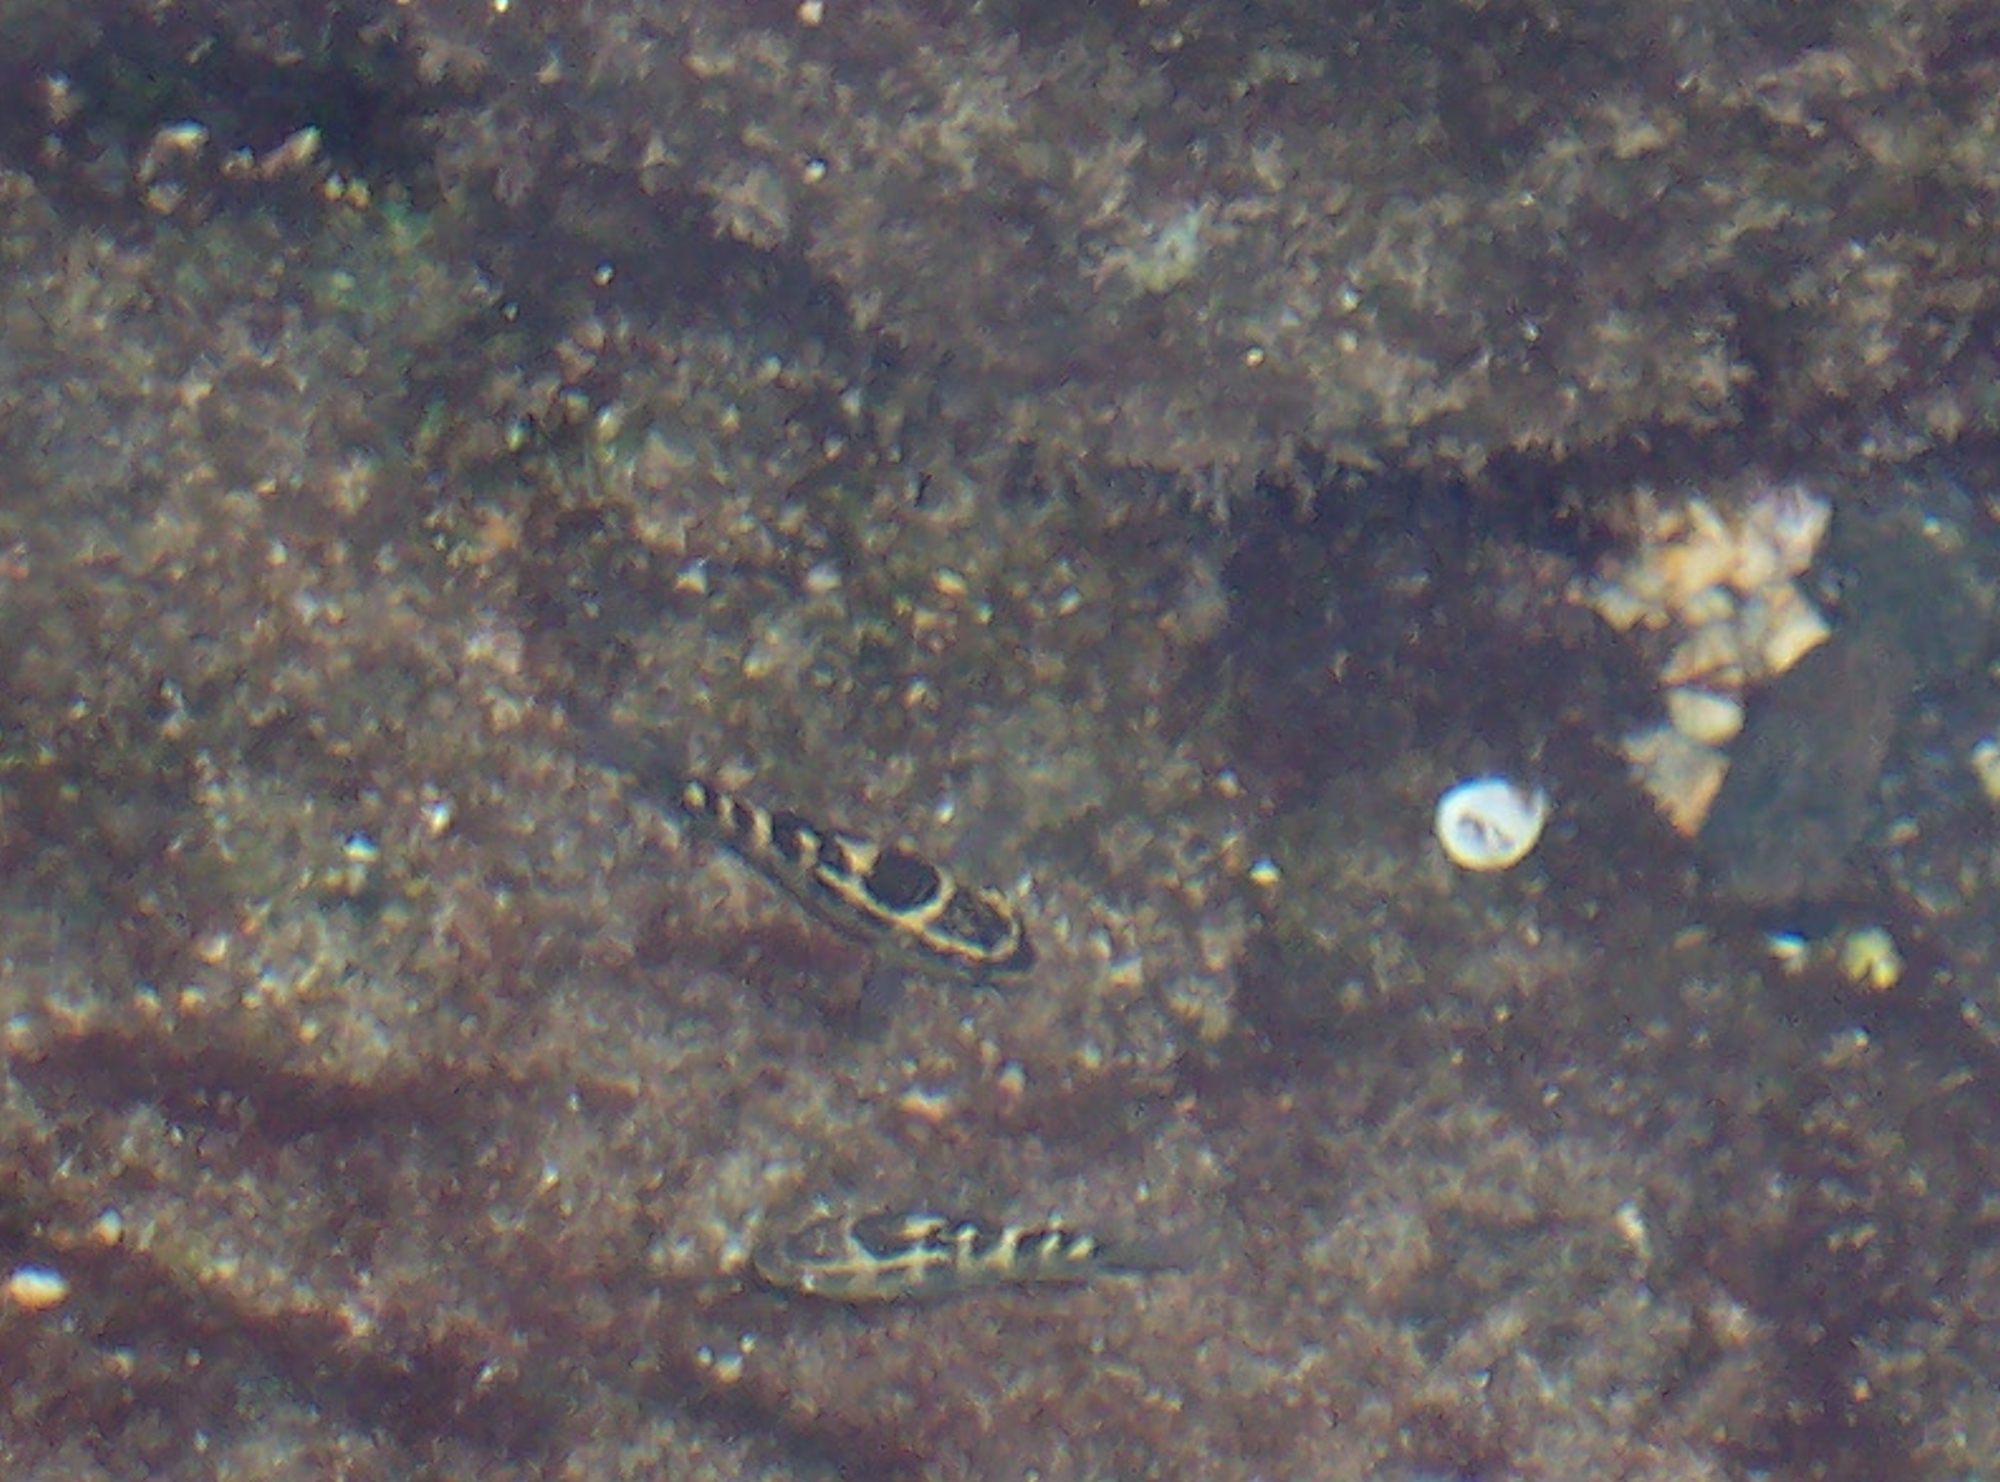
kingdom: Animalia
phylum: Chordata
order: Perciformes
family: Pomacentridae
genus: Abudefduf
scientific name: Abudefduf concolor
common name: Dusky seargent
